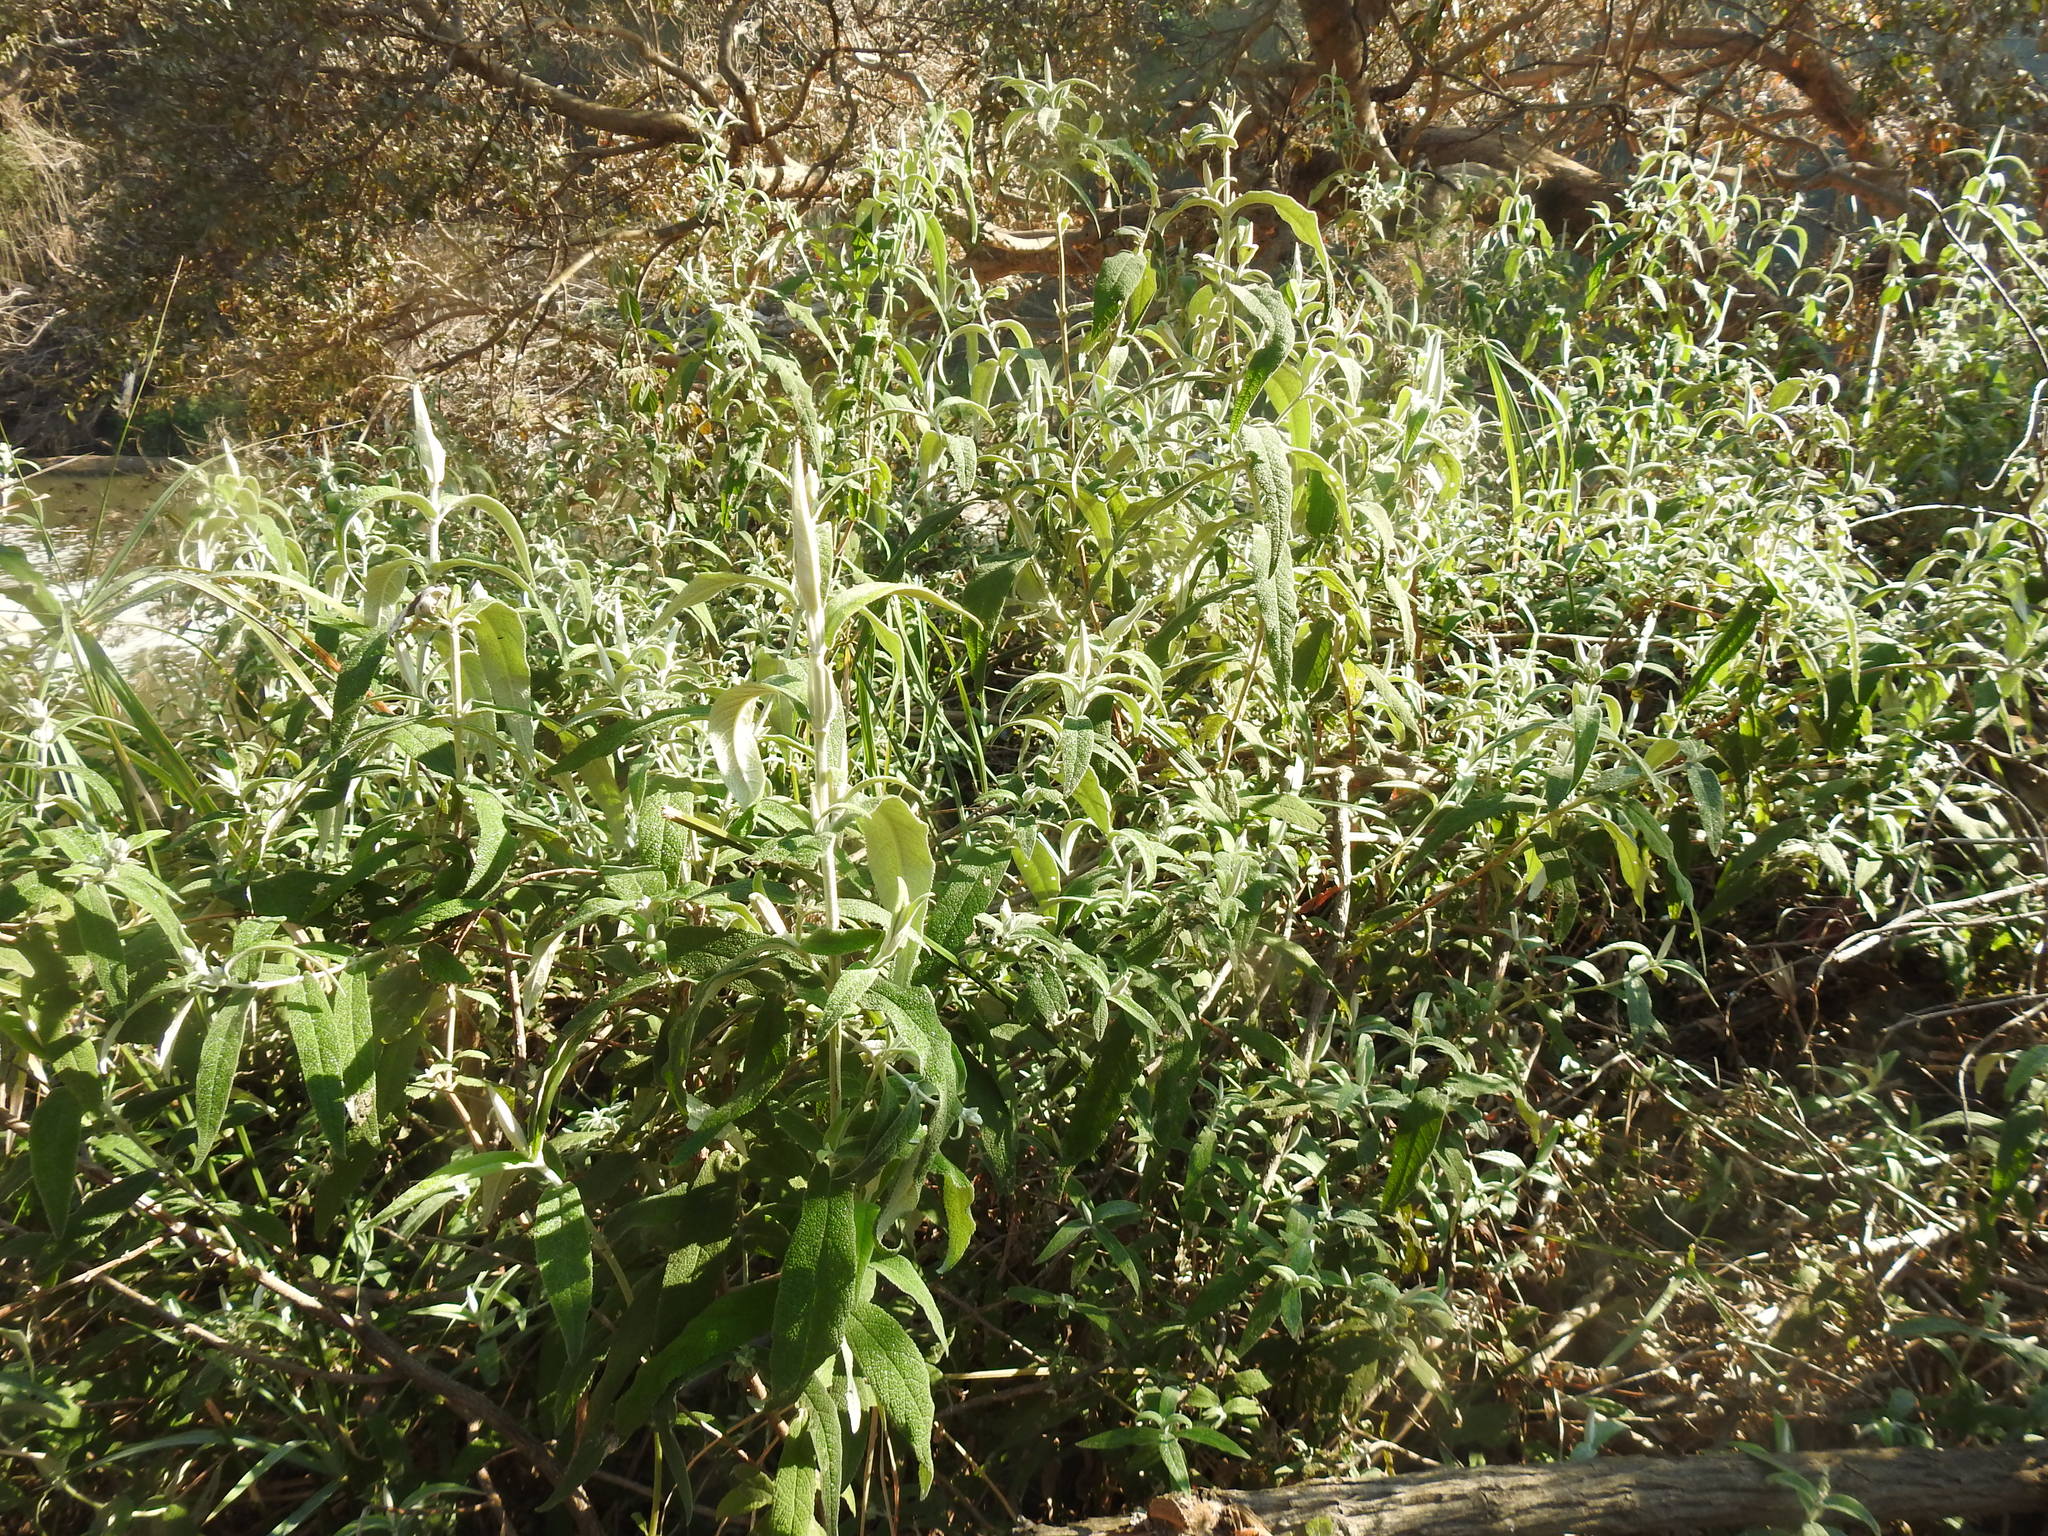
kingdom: Plantae
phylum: Tracheophyta
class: Magnoliopsida
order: Lamiales
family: Scrophulariaceae
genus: Buddleja
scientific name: Buddleja salviifolia
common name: Sagewood
